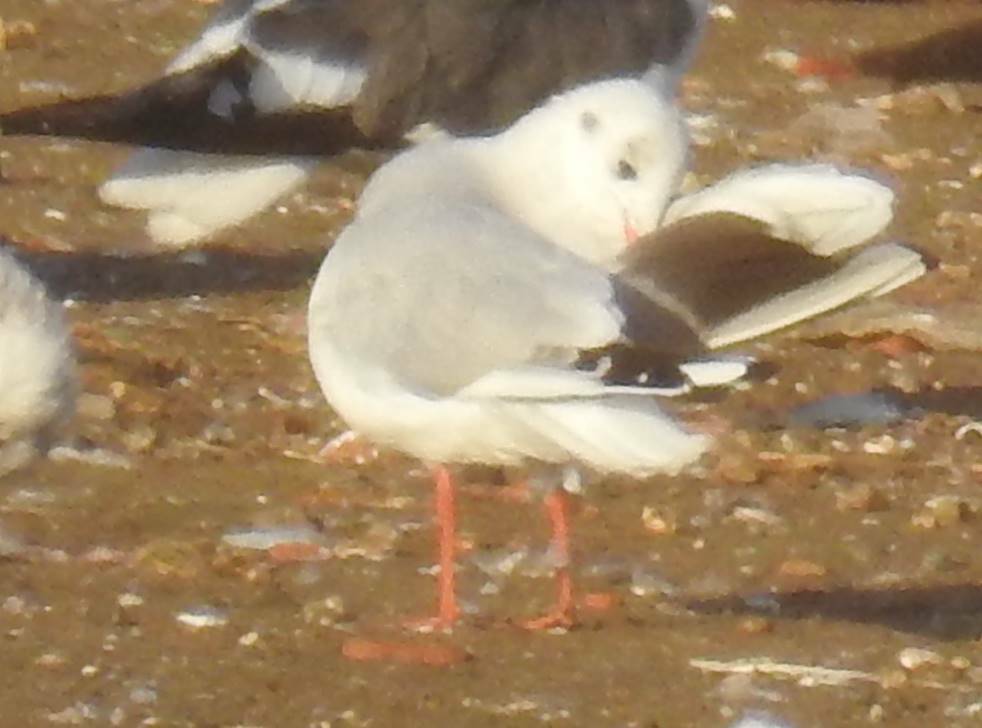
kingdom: Animalia
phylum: Chordata
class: Aves
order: Charadriiformes
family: Laridae
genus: Chroicocephalus
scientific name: Chroicocephalus ridibundus
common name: Black-headed gull
